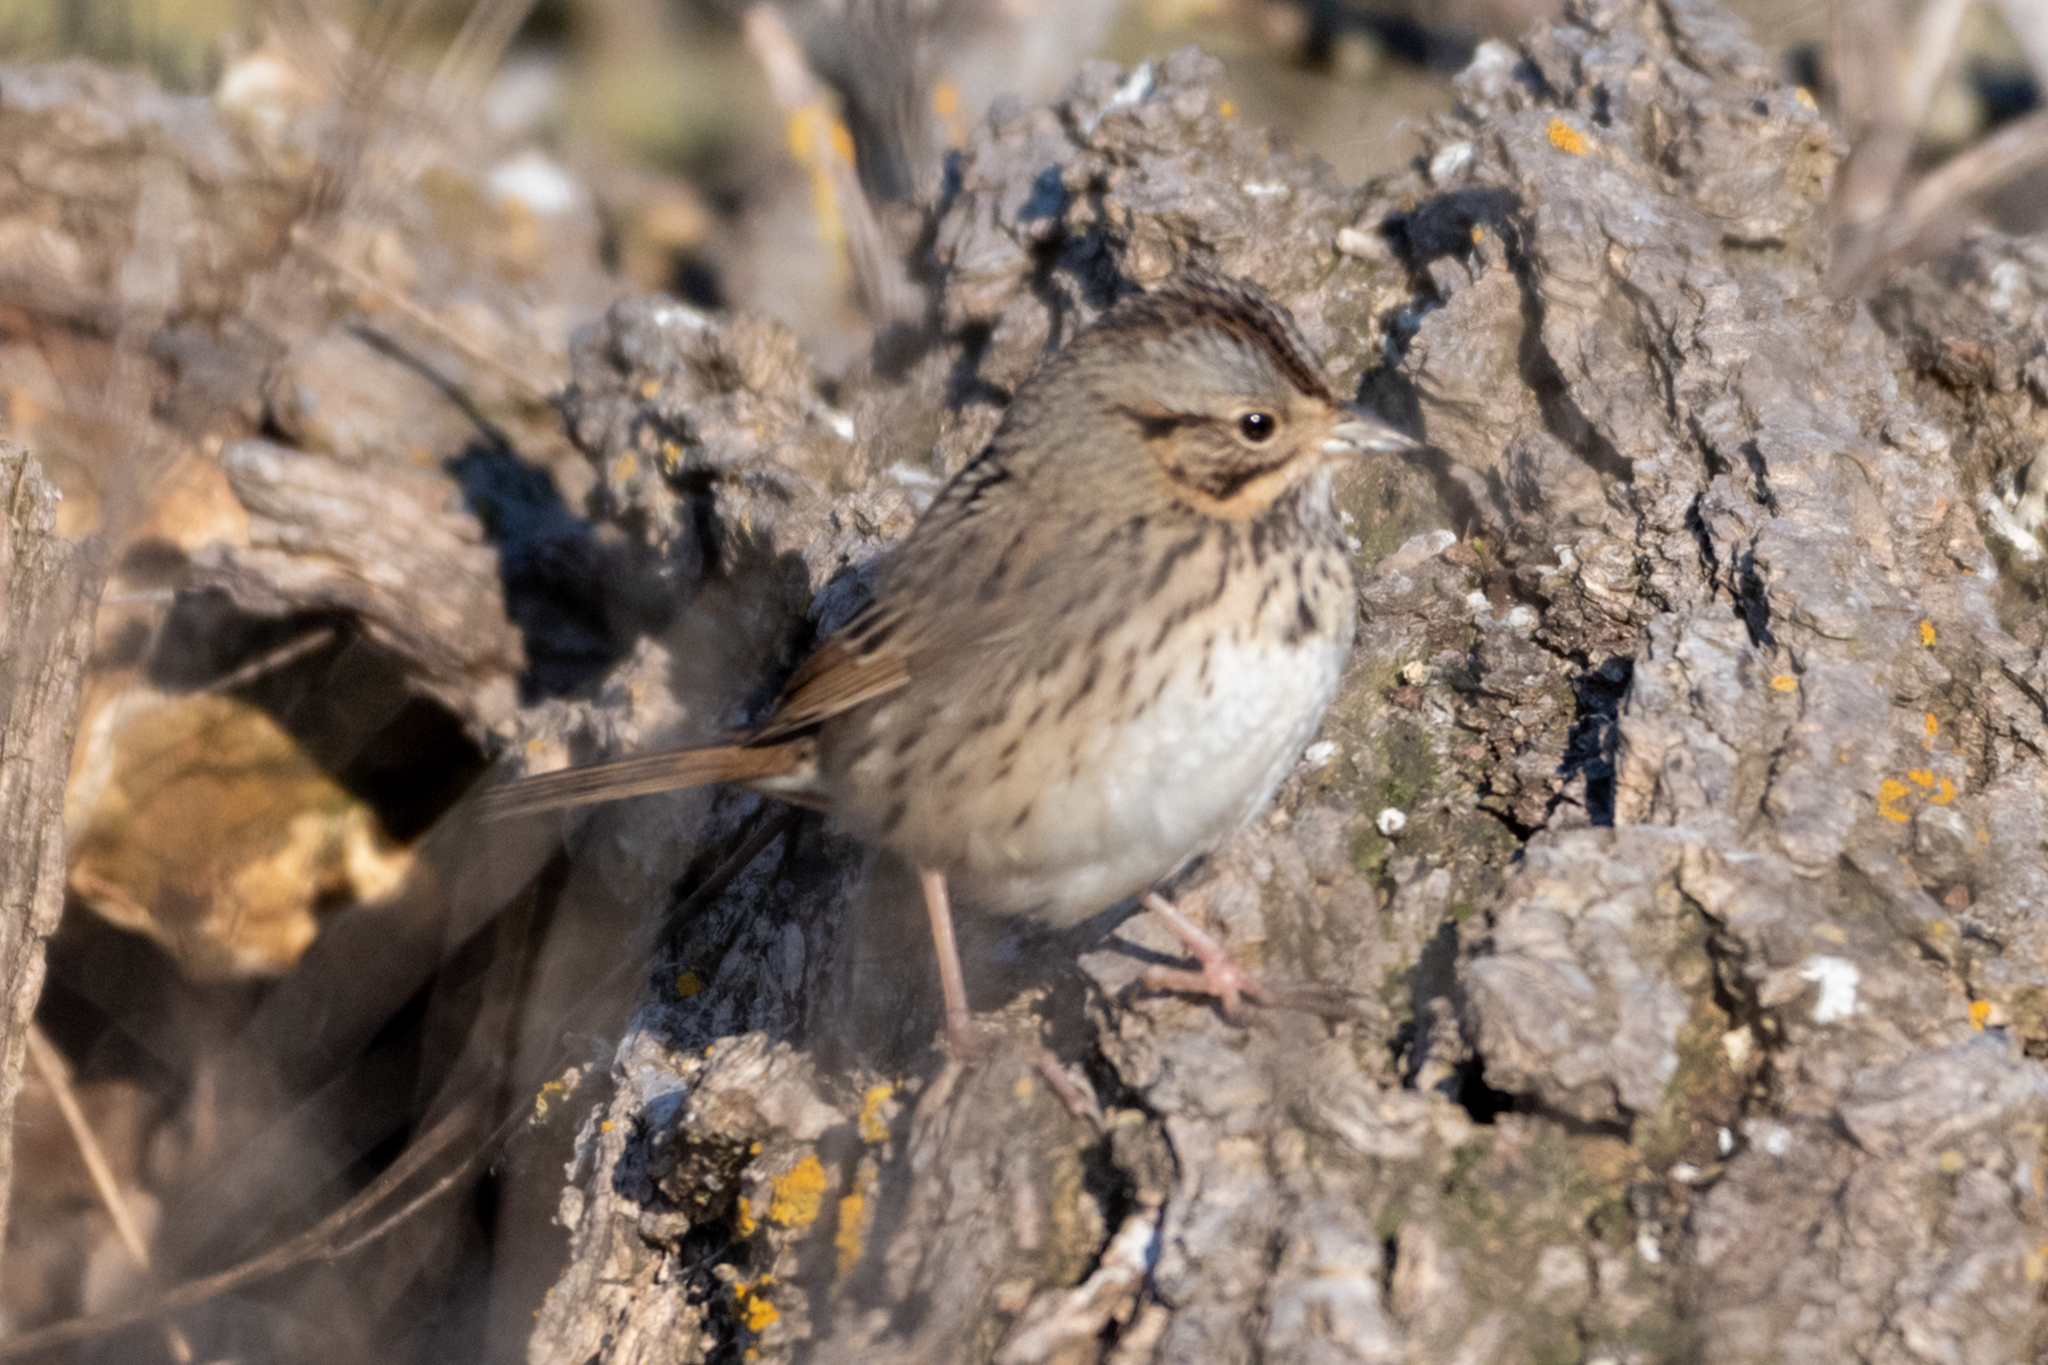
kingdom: Animalia
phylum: Chordata
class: Aves
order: Passeriformes
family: Passerellidae
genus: Melospiza
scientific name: Melospiza lincolnii
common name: Lincoln's sparrow
